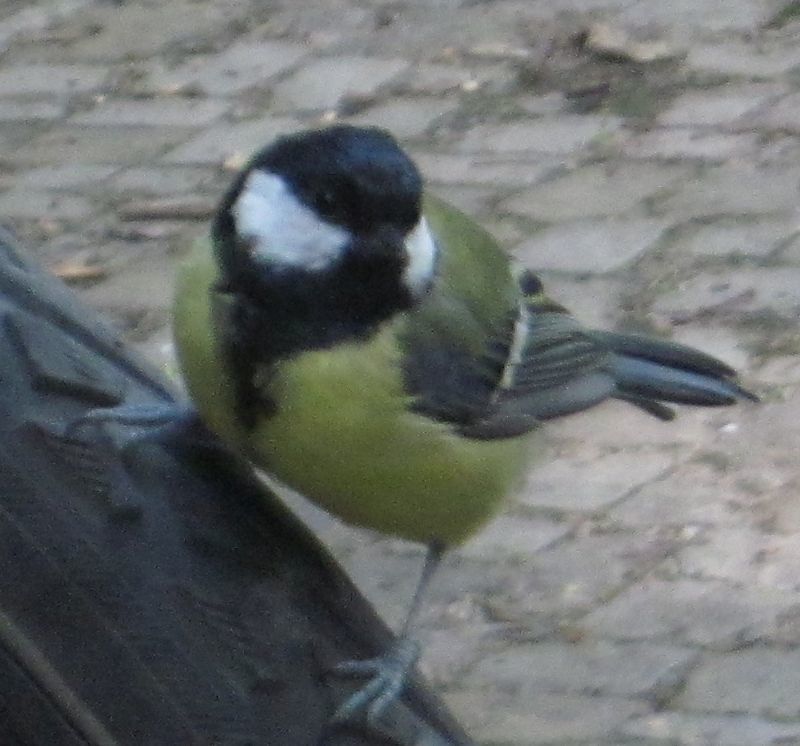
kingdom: Animalia
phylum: Chordata
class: Aves
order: Passeriformes
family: Paridae
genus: Parus
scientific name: Parus major
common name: Great tit
